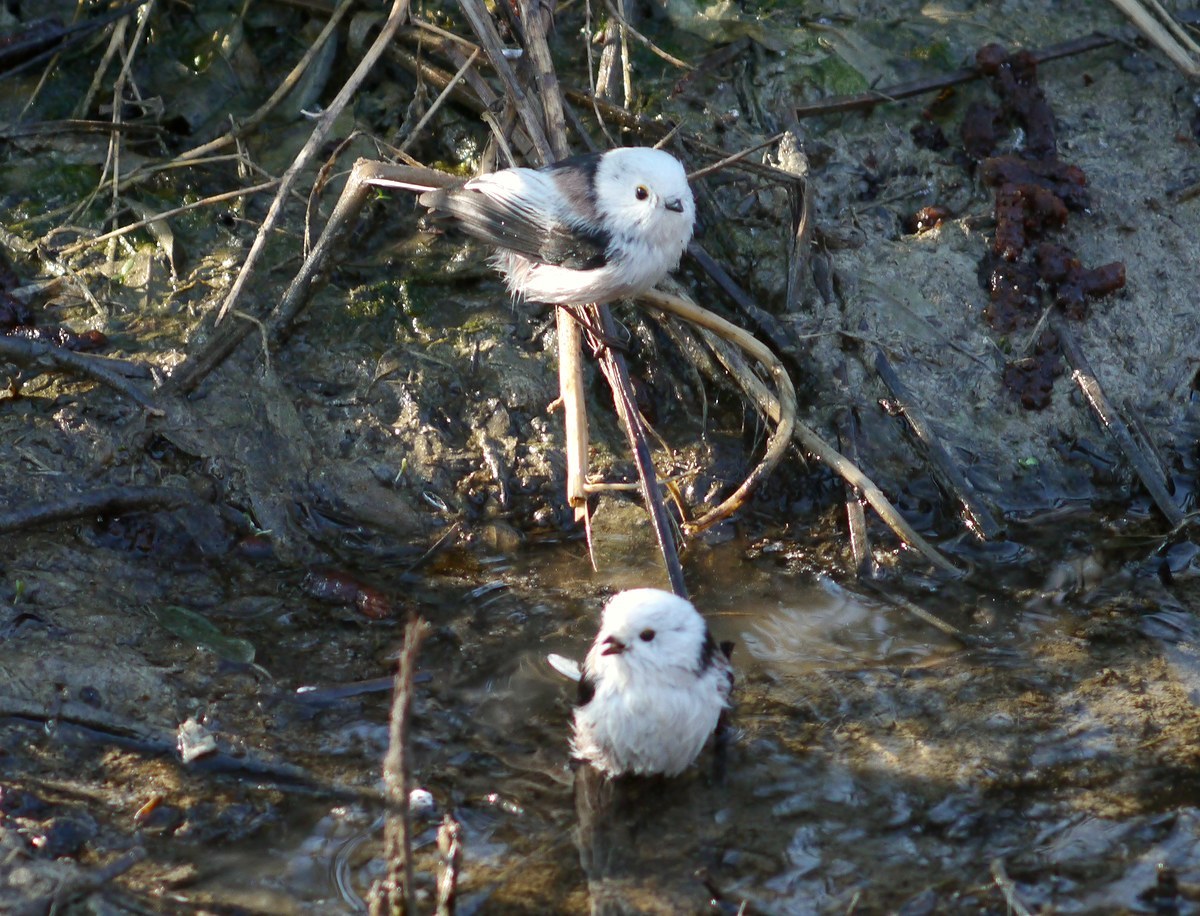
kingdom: Animalia
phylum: Chordata
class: Aves
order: Passeriformes
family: Aegithalidae
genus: Aegithalos
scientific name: Aegithalos caudatus
